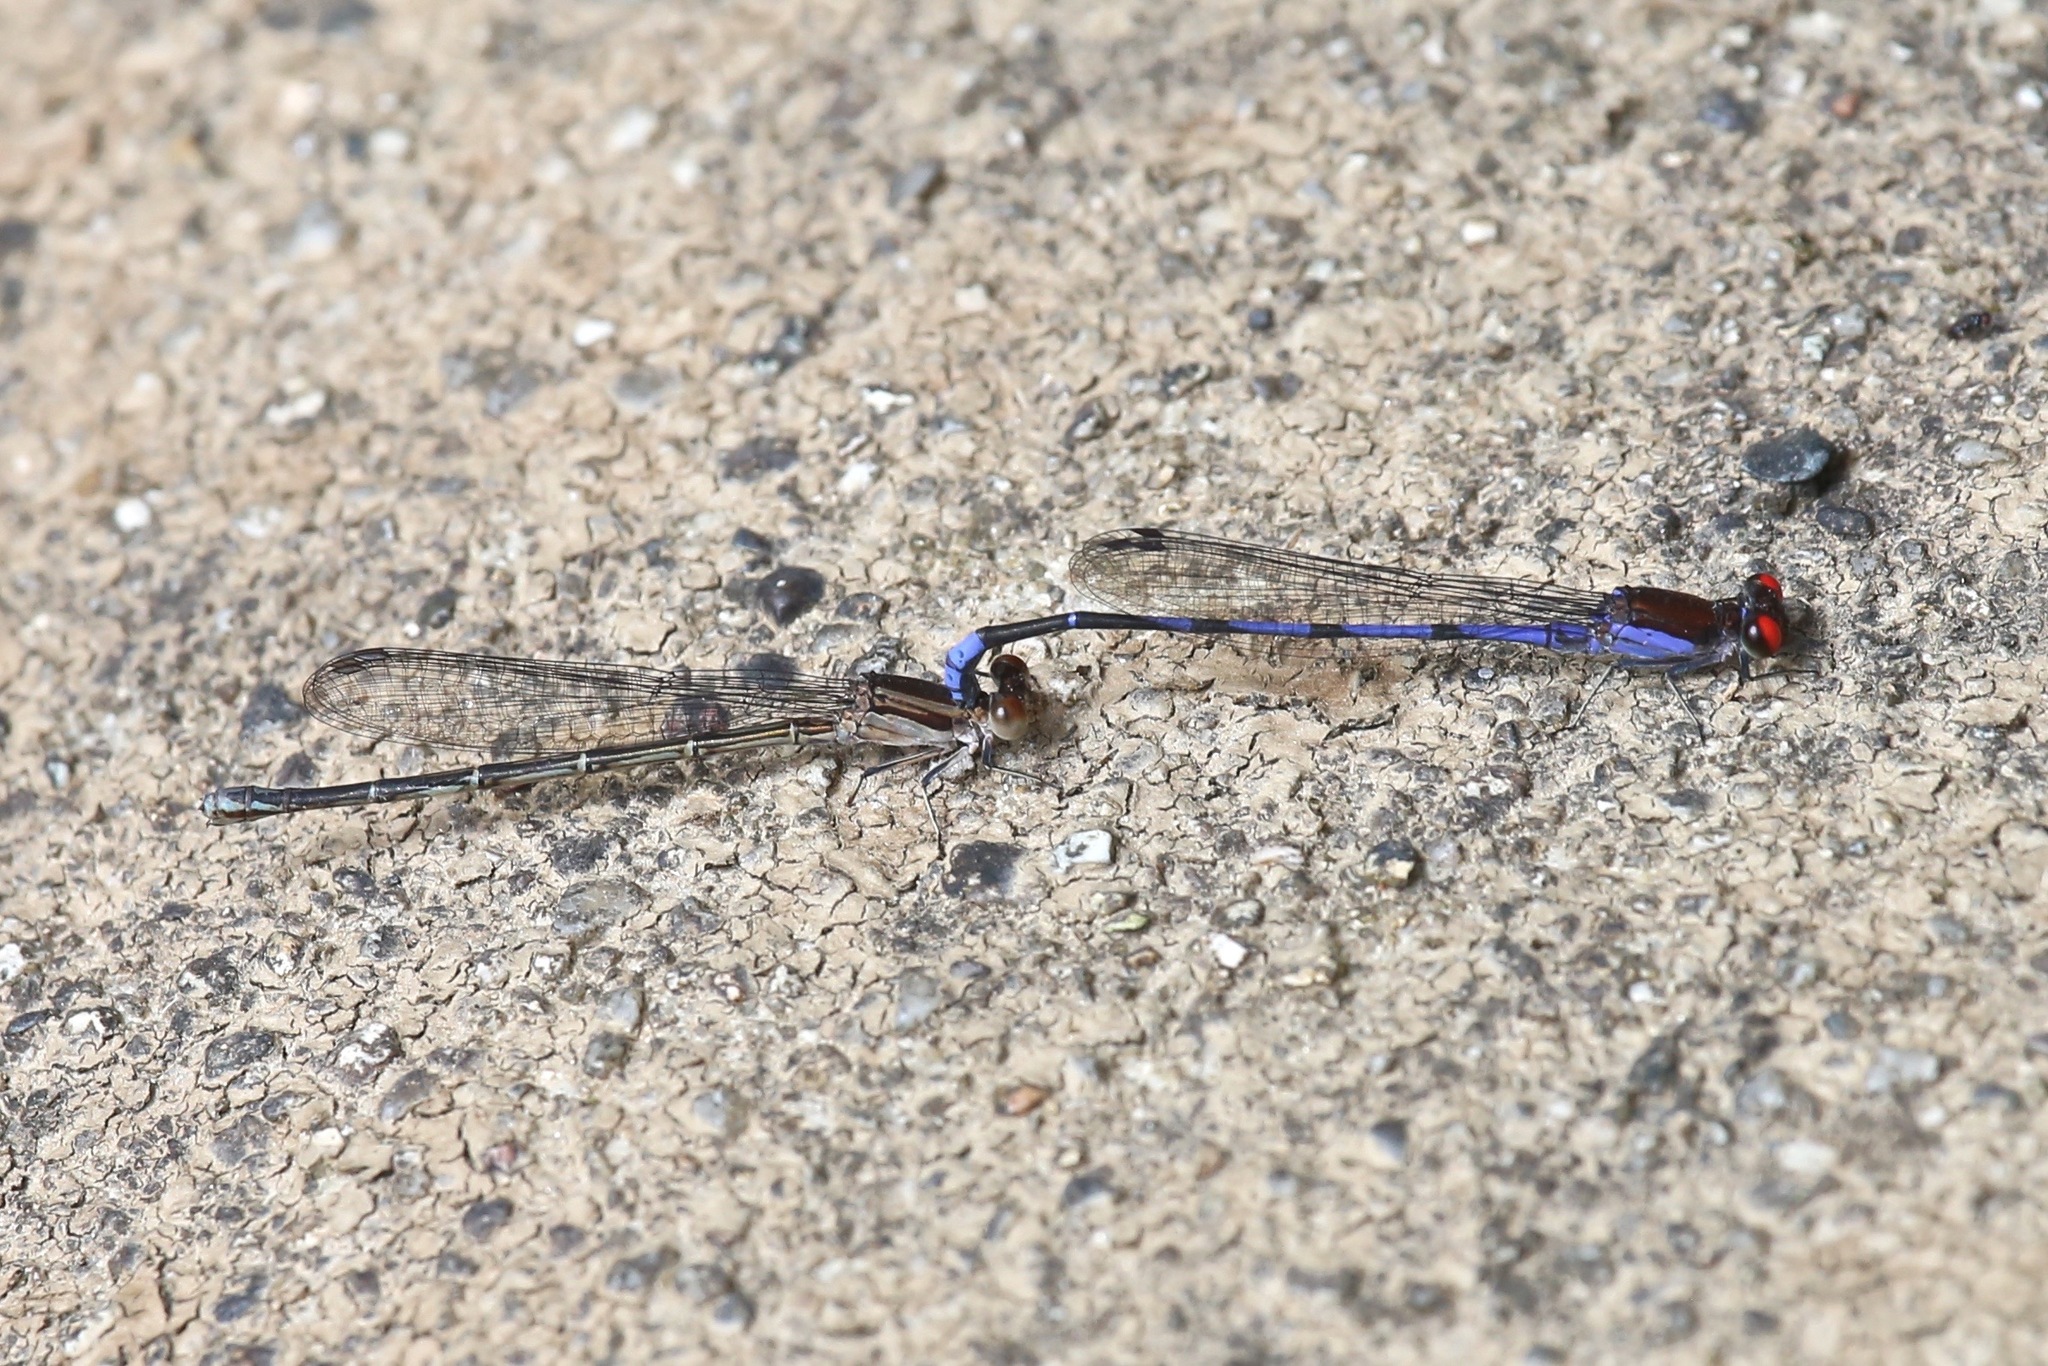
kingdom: Animalia
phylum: Arthropoda
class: Insecta
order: Odonata
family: Coenagrionidae
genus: Argia
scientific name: Argia oenea
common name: Fiery-eyed dancer
